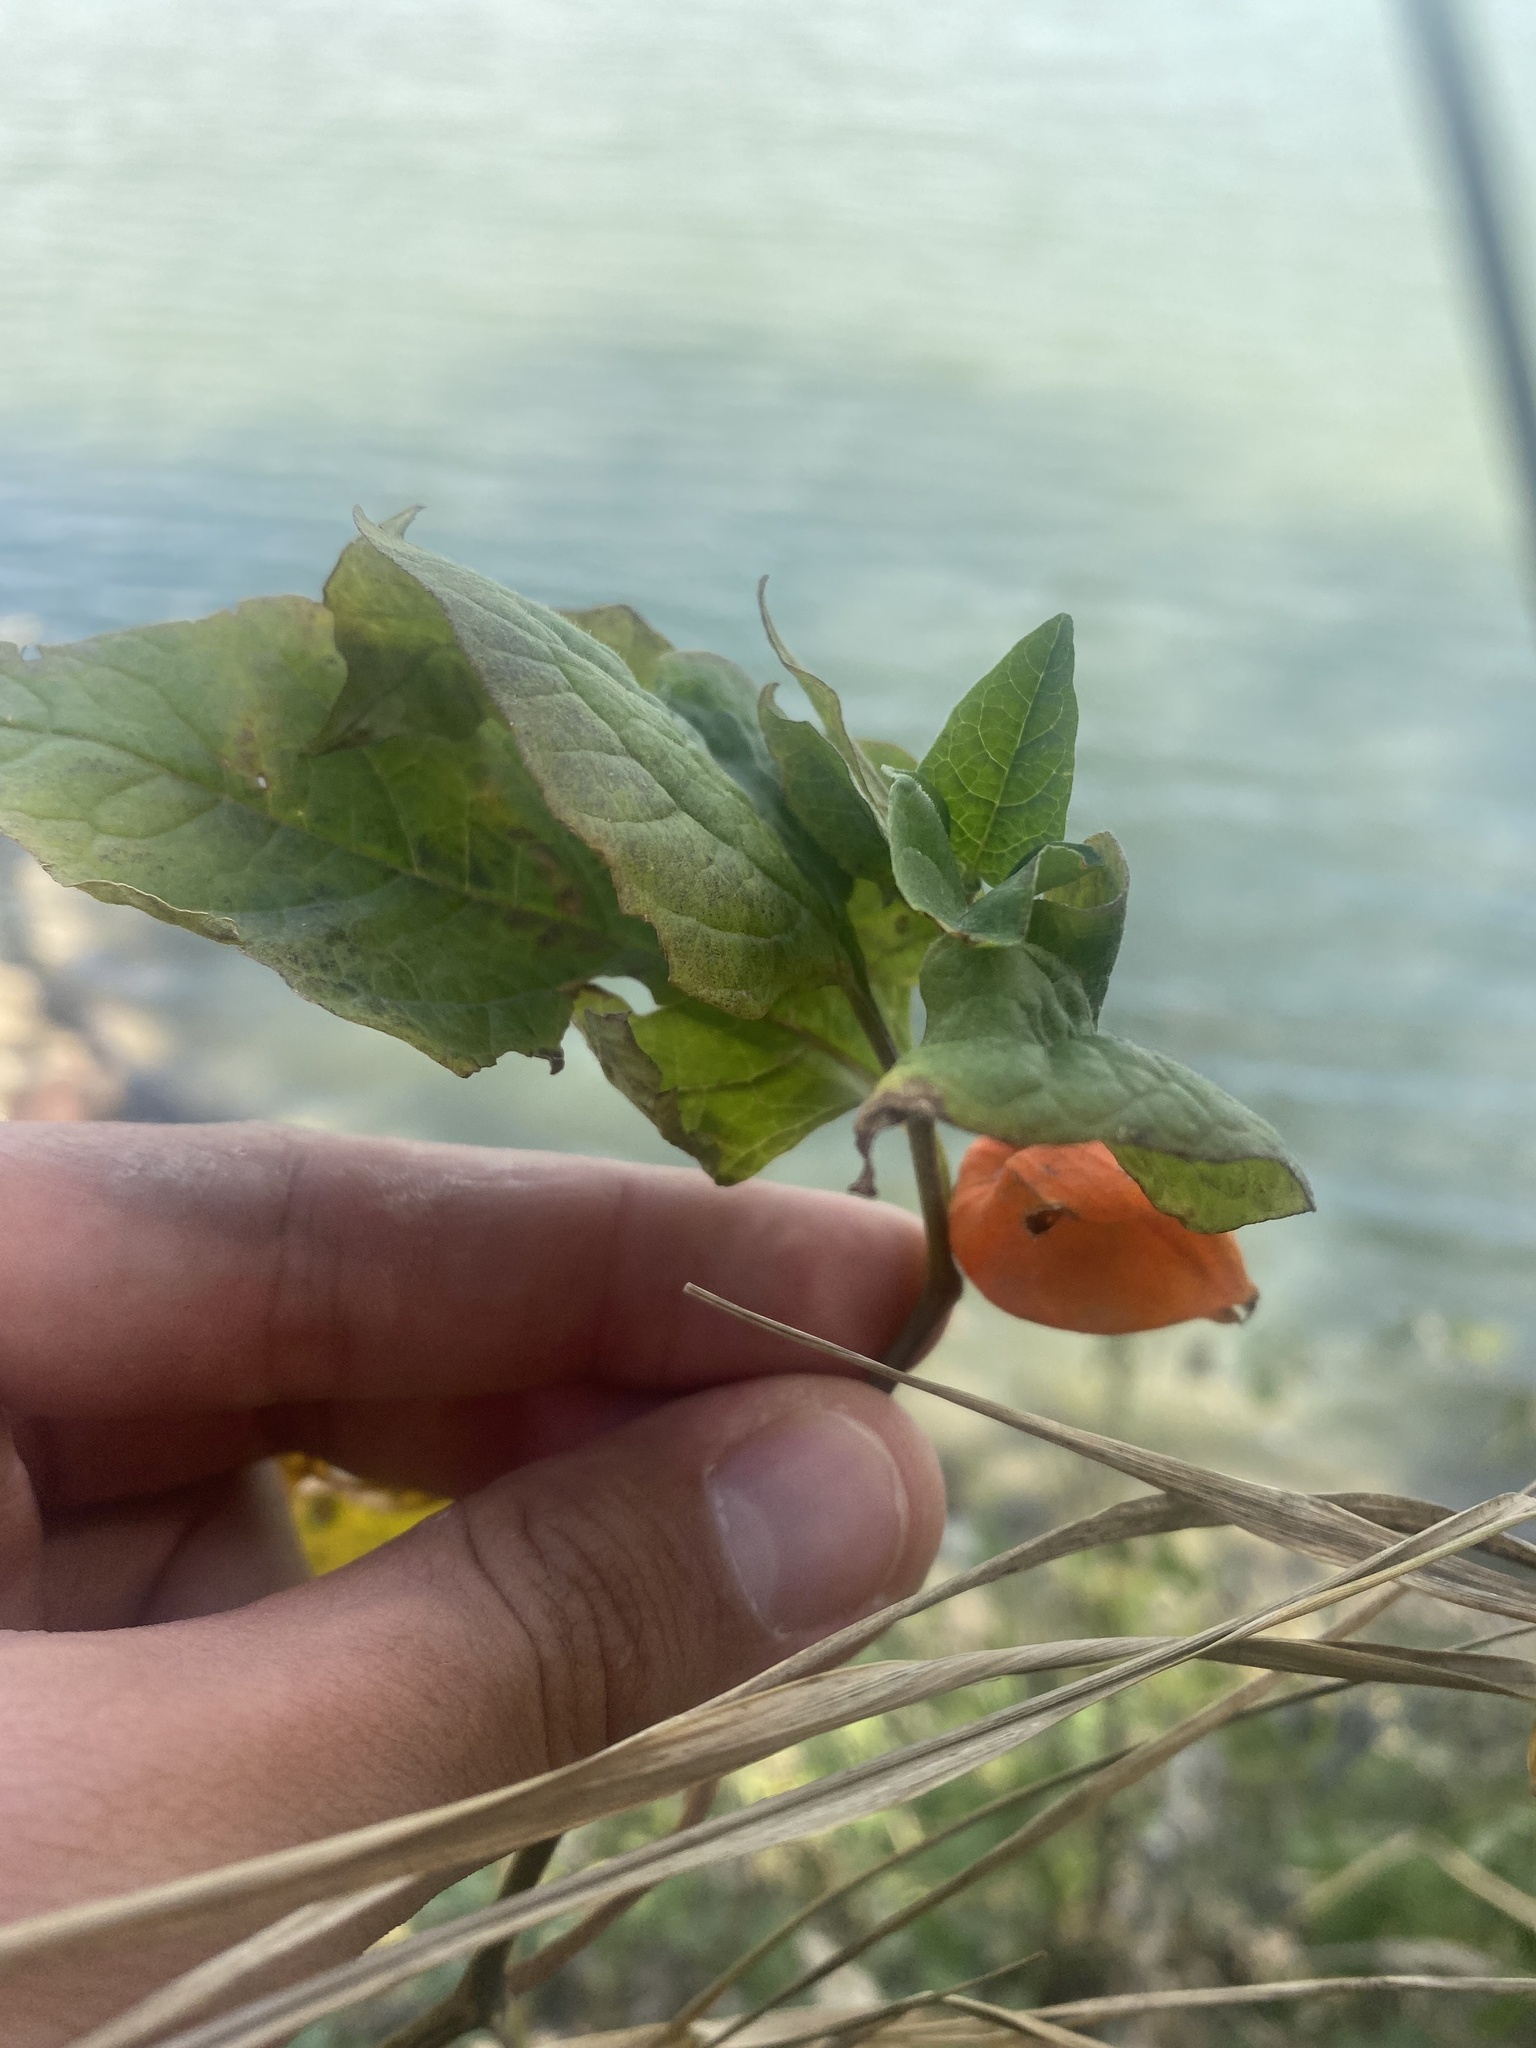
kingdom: Plantae
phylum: Tracheophyta
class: Magnoliopsida
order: Solanales
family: Solanaceae
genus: Alkekengi
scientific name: Alkekengi officinarum
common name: Japanese-lantern
